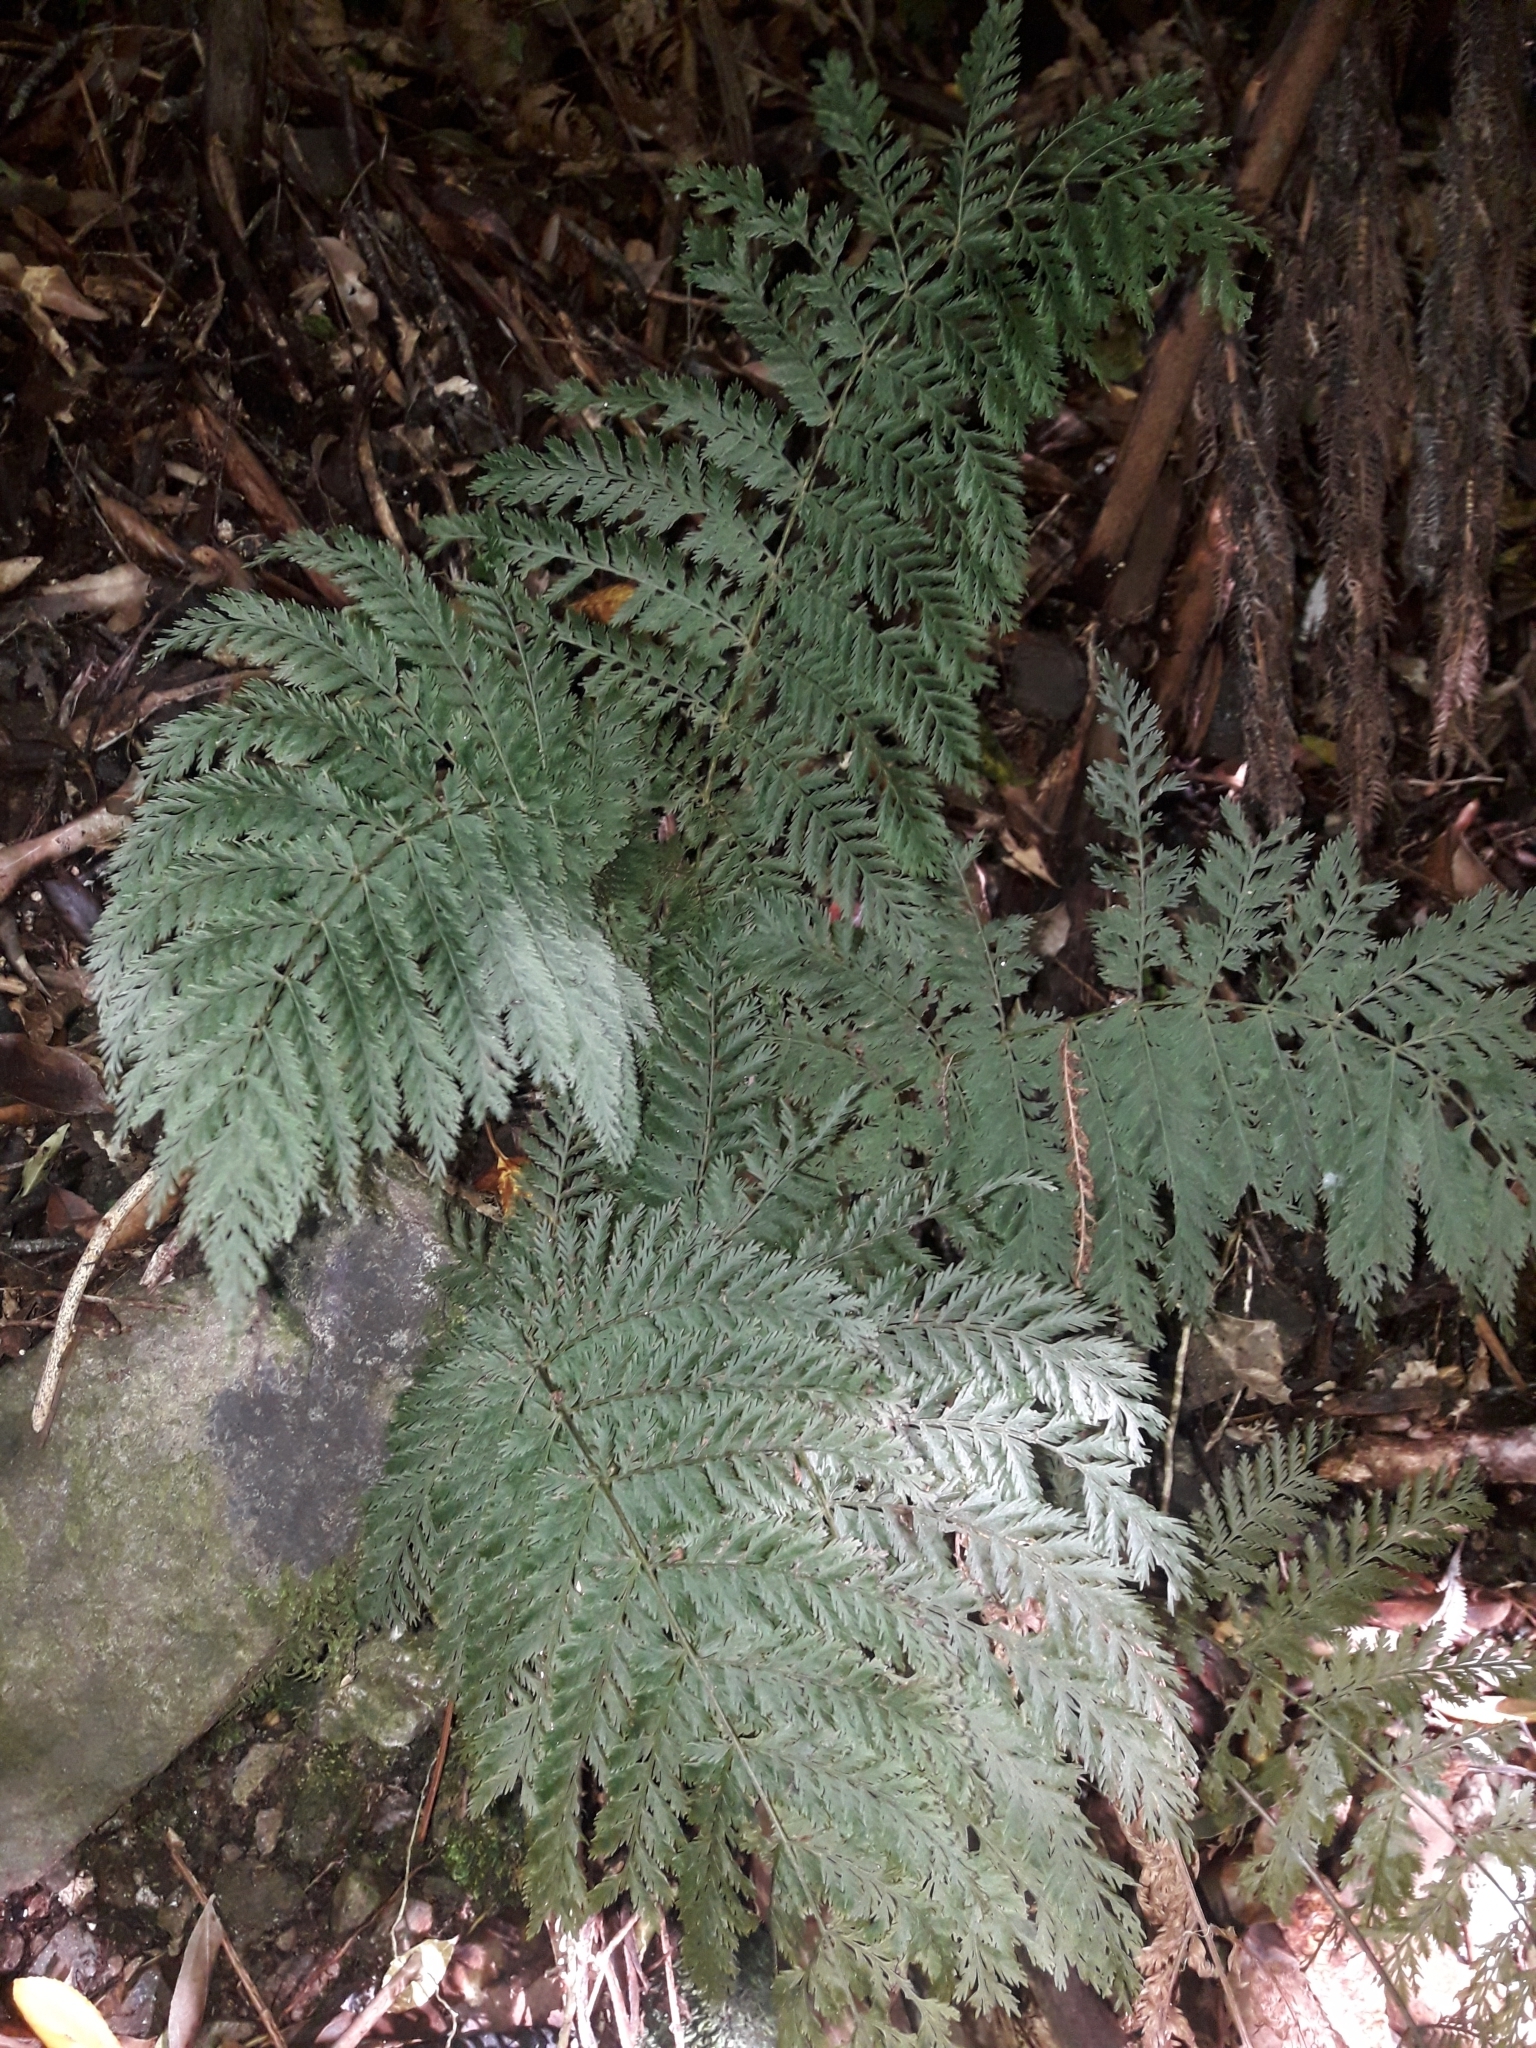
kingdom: Plantae
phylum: Tracheophyta
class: Polypodiopsida
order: Osmundales
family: Osmundaceae
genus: Leptopteris
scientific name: Leptopteris hymenophylloides
